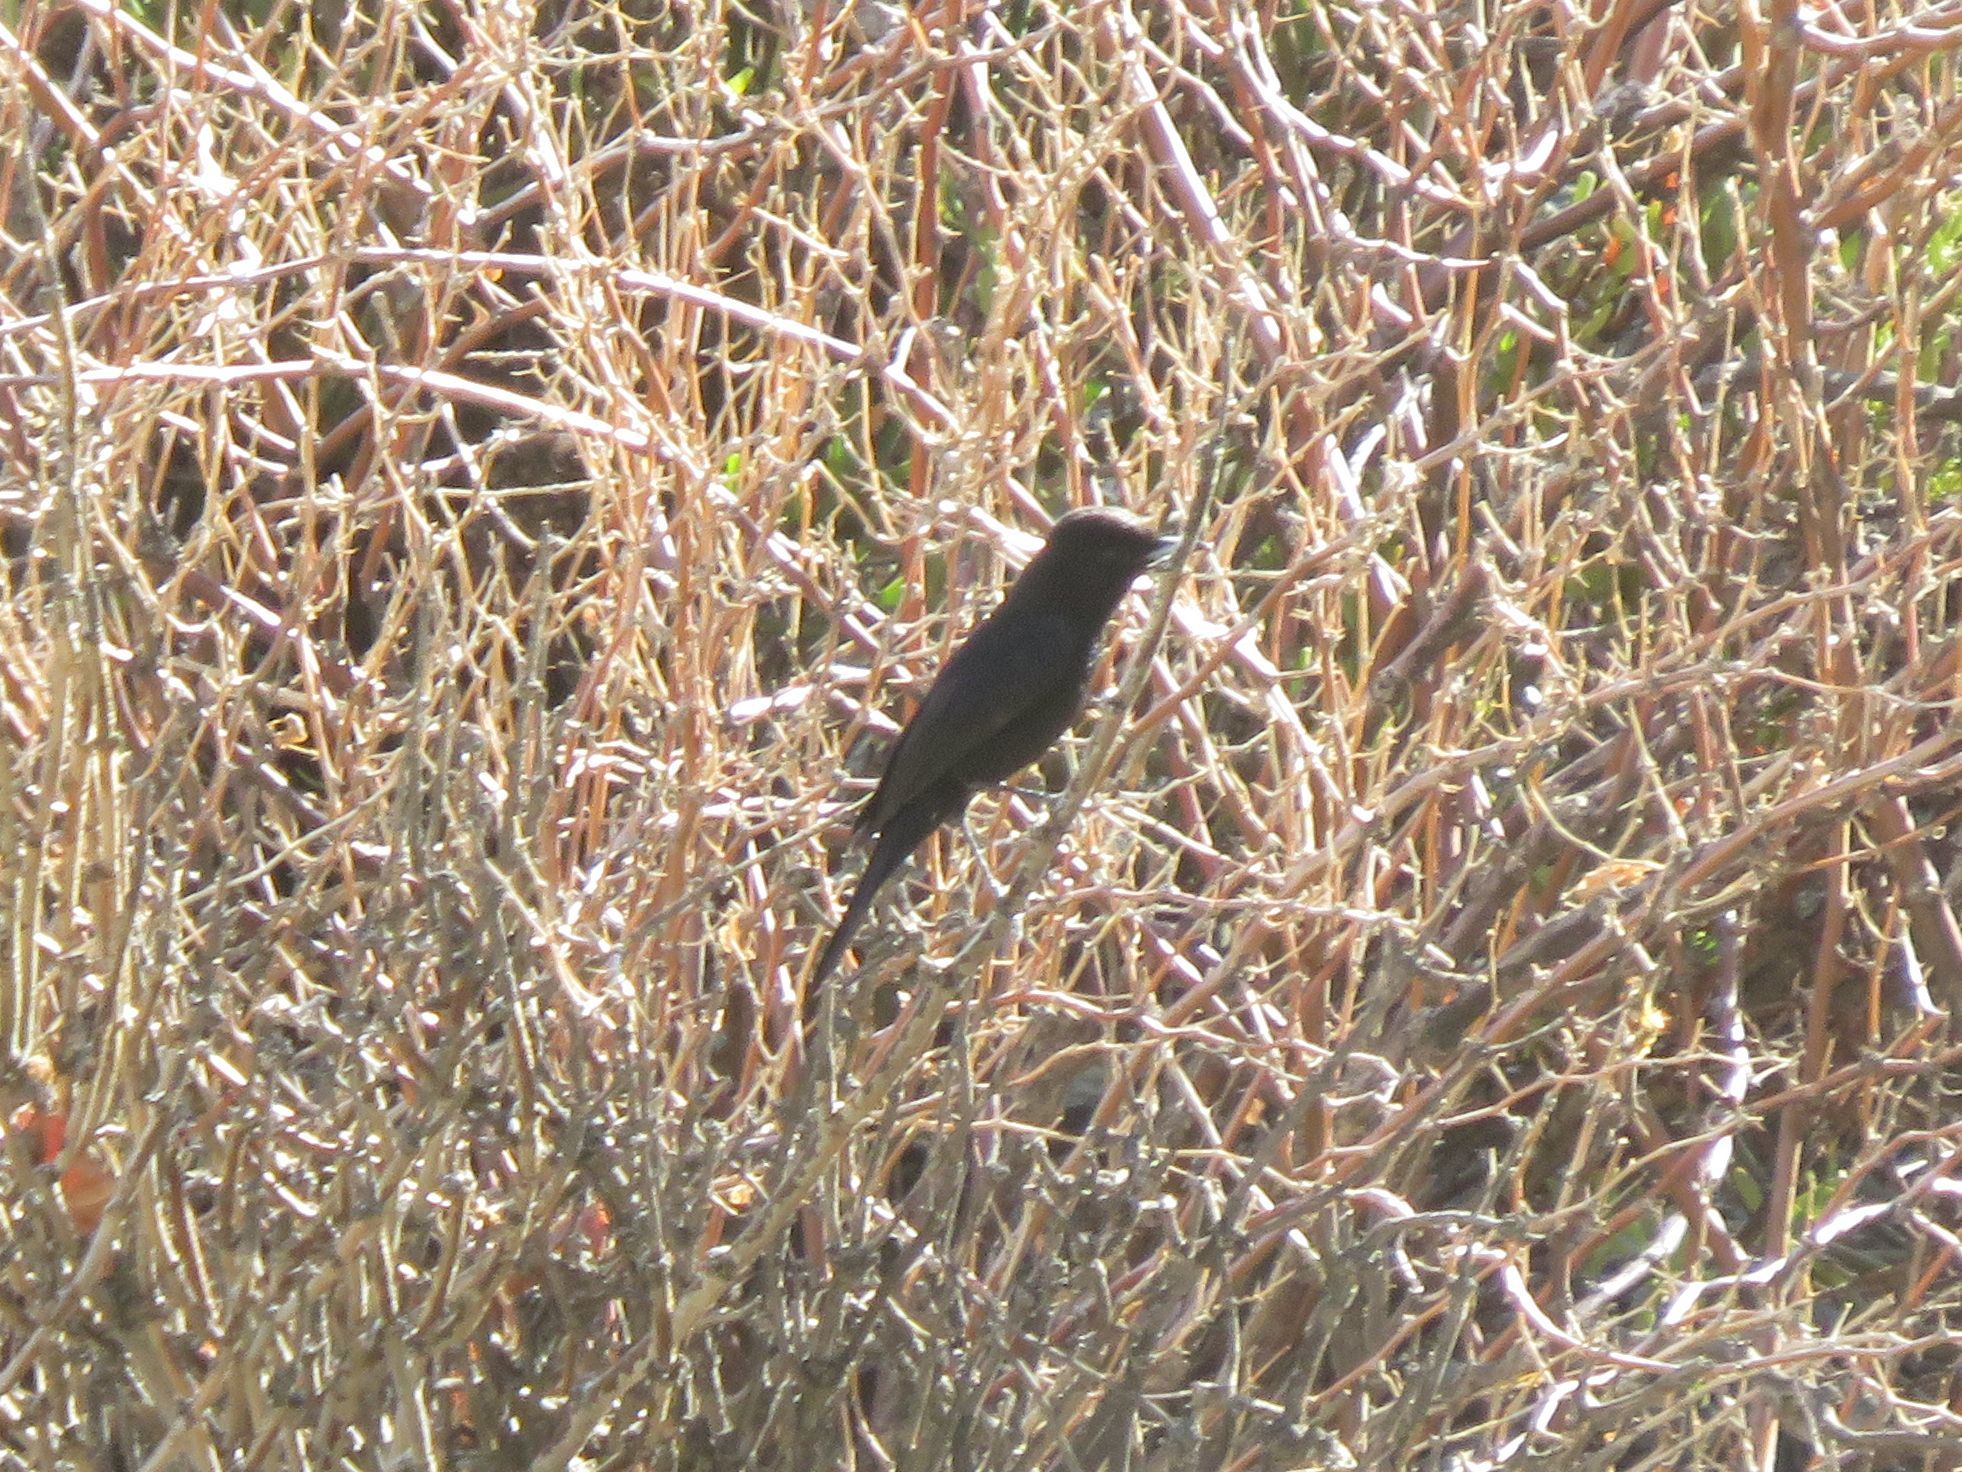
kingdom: Animalia
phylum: Chordata
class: Aves
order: Passeriformes
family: Tyrannidae
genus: Knipolegus
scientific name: Knipolegus aterrimus
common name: White-winged black tyrant
